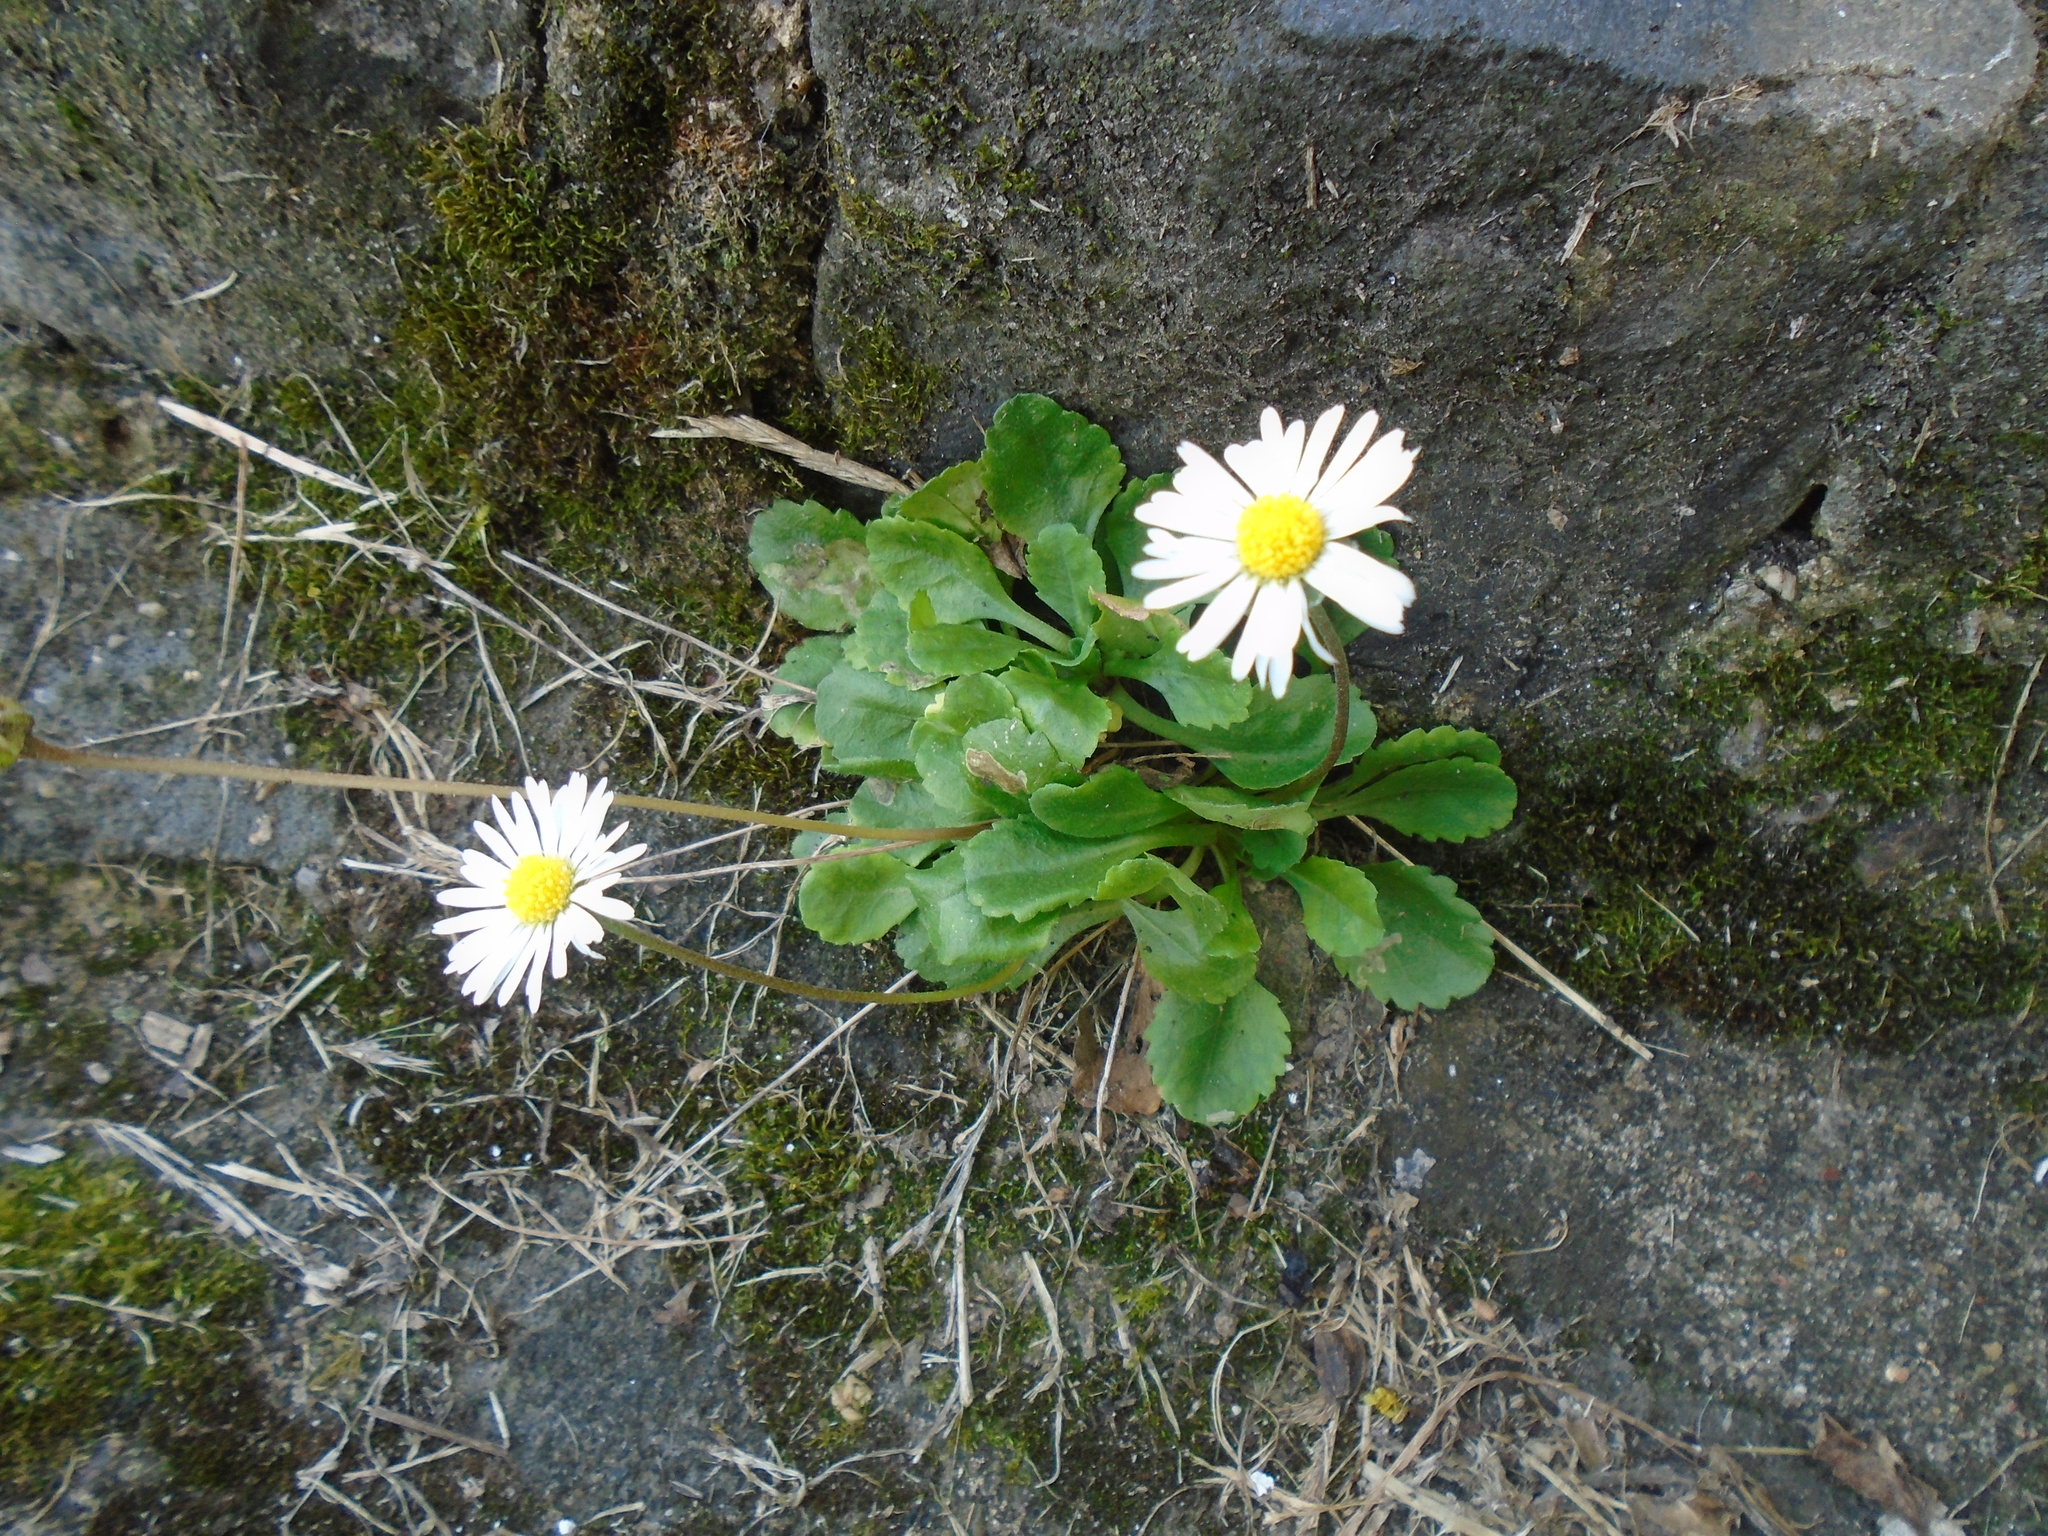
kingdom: Plantae
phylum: Tracheophyta
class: Magnoliopsida
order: Asterales
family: Asteraceae
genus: Bellis
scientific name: Bellis perennis
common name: Lawndaisy
